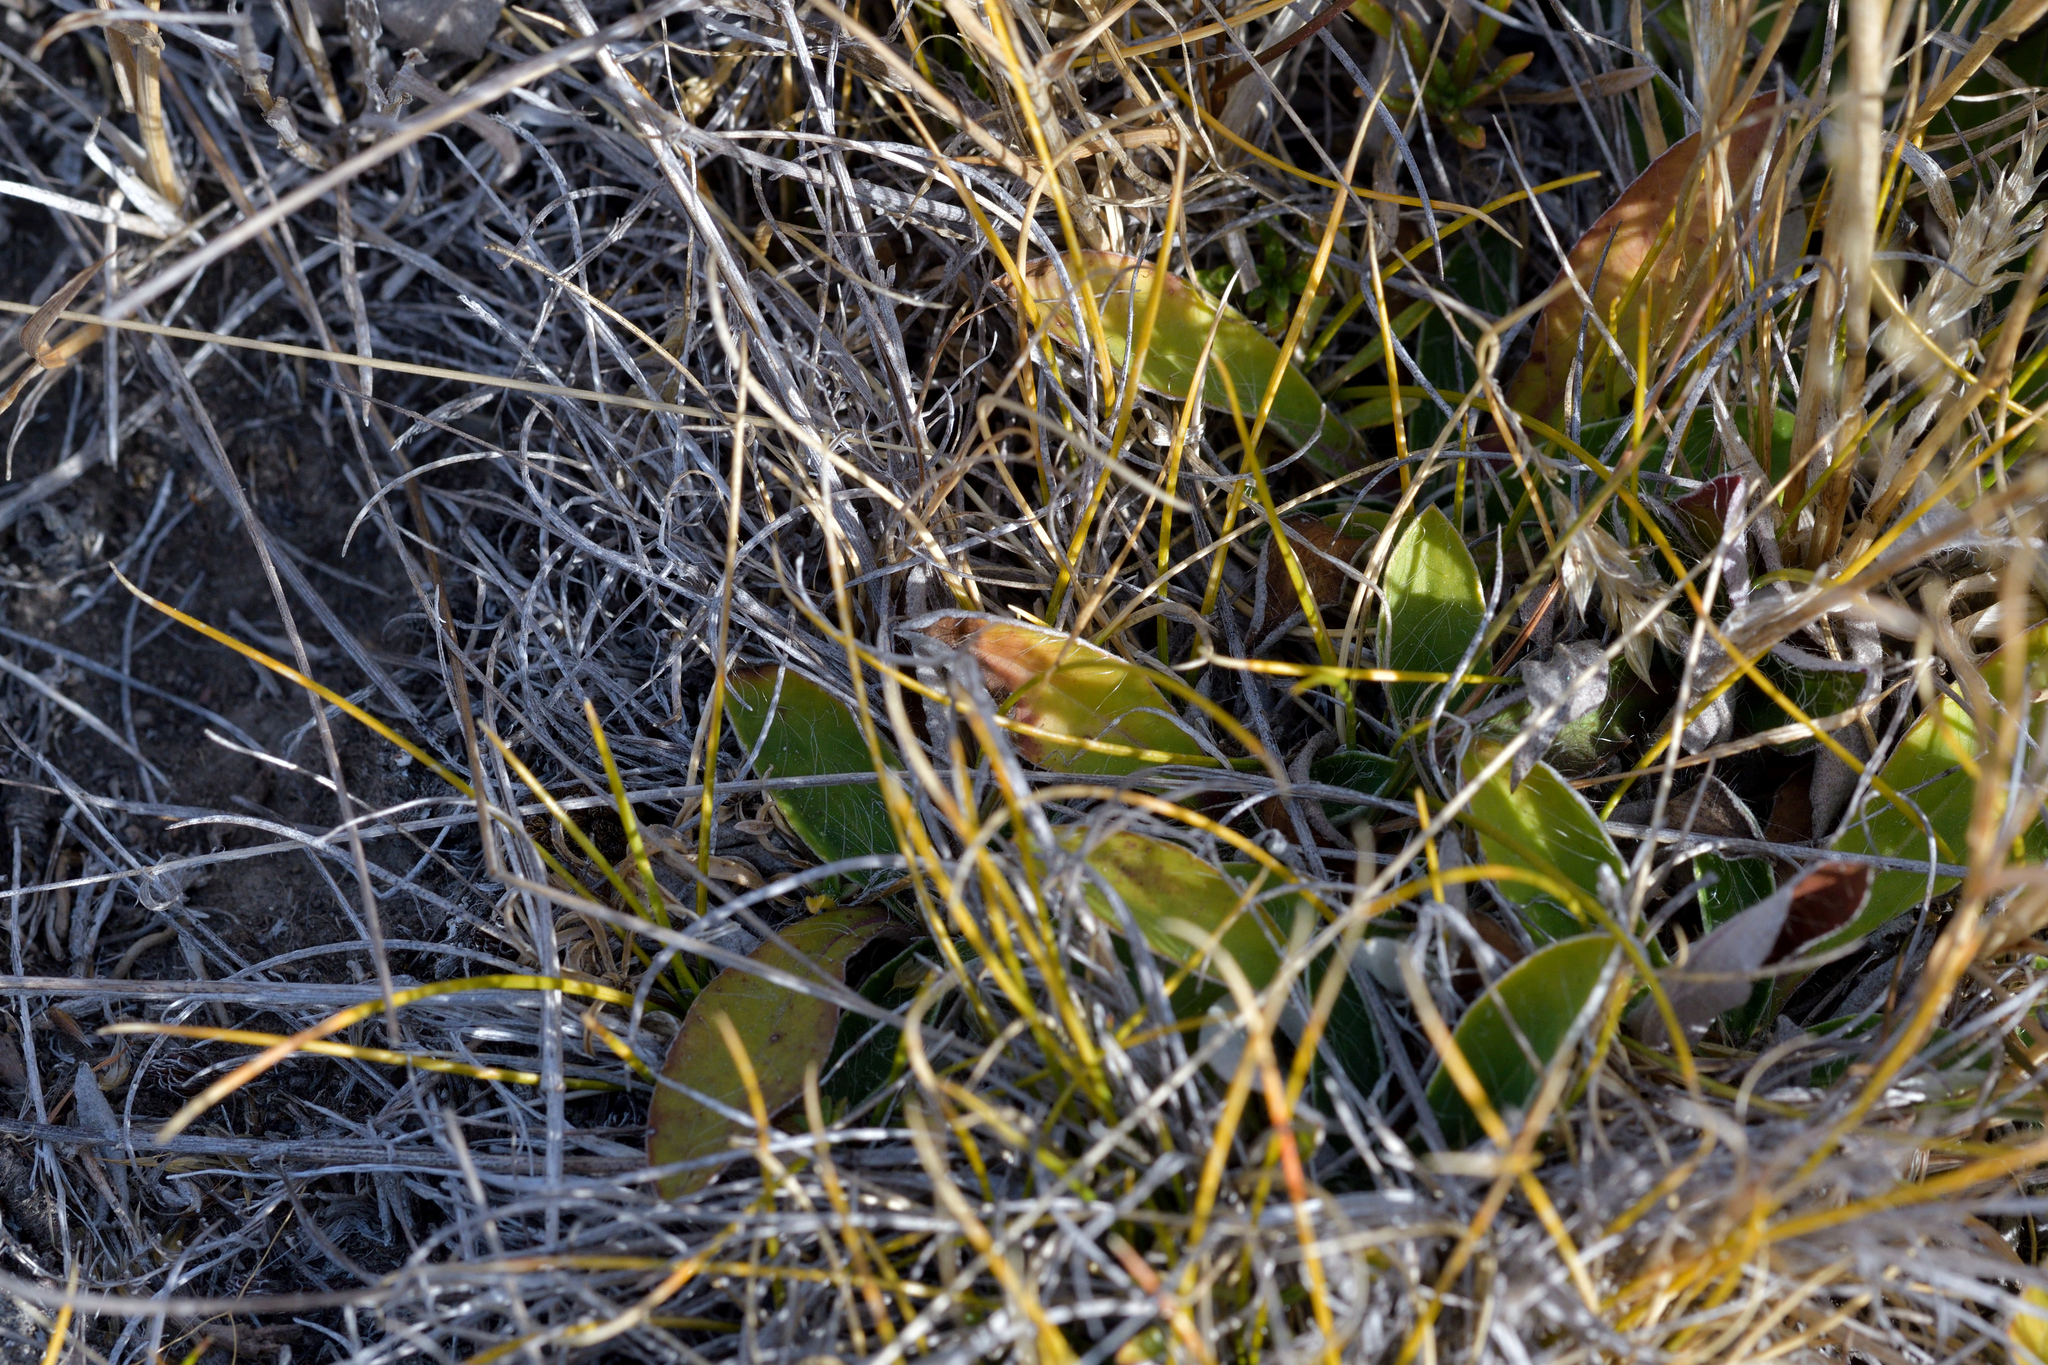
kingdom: Plantae
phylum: Tracheophyta
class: Magnoliopsida
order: Asterales
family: Asteraceae
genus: Pilosella
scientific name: Pilosella officinarum
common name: Mouse-ear hawkweed
